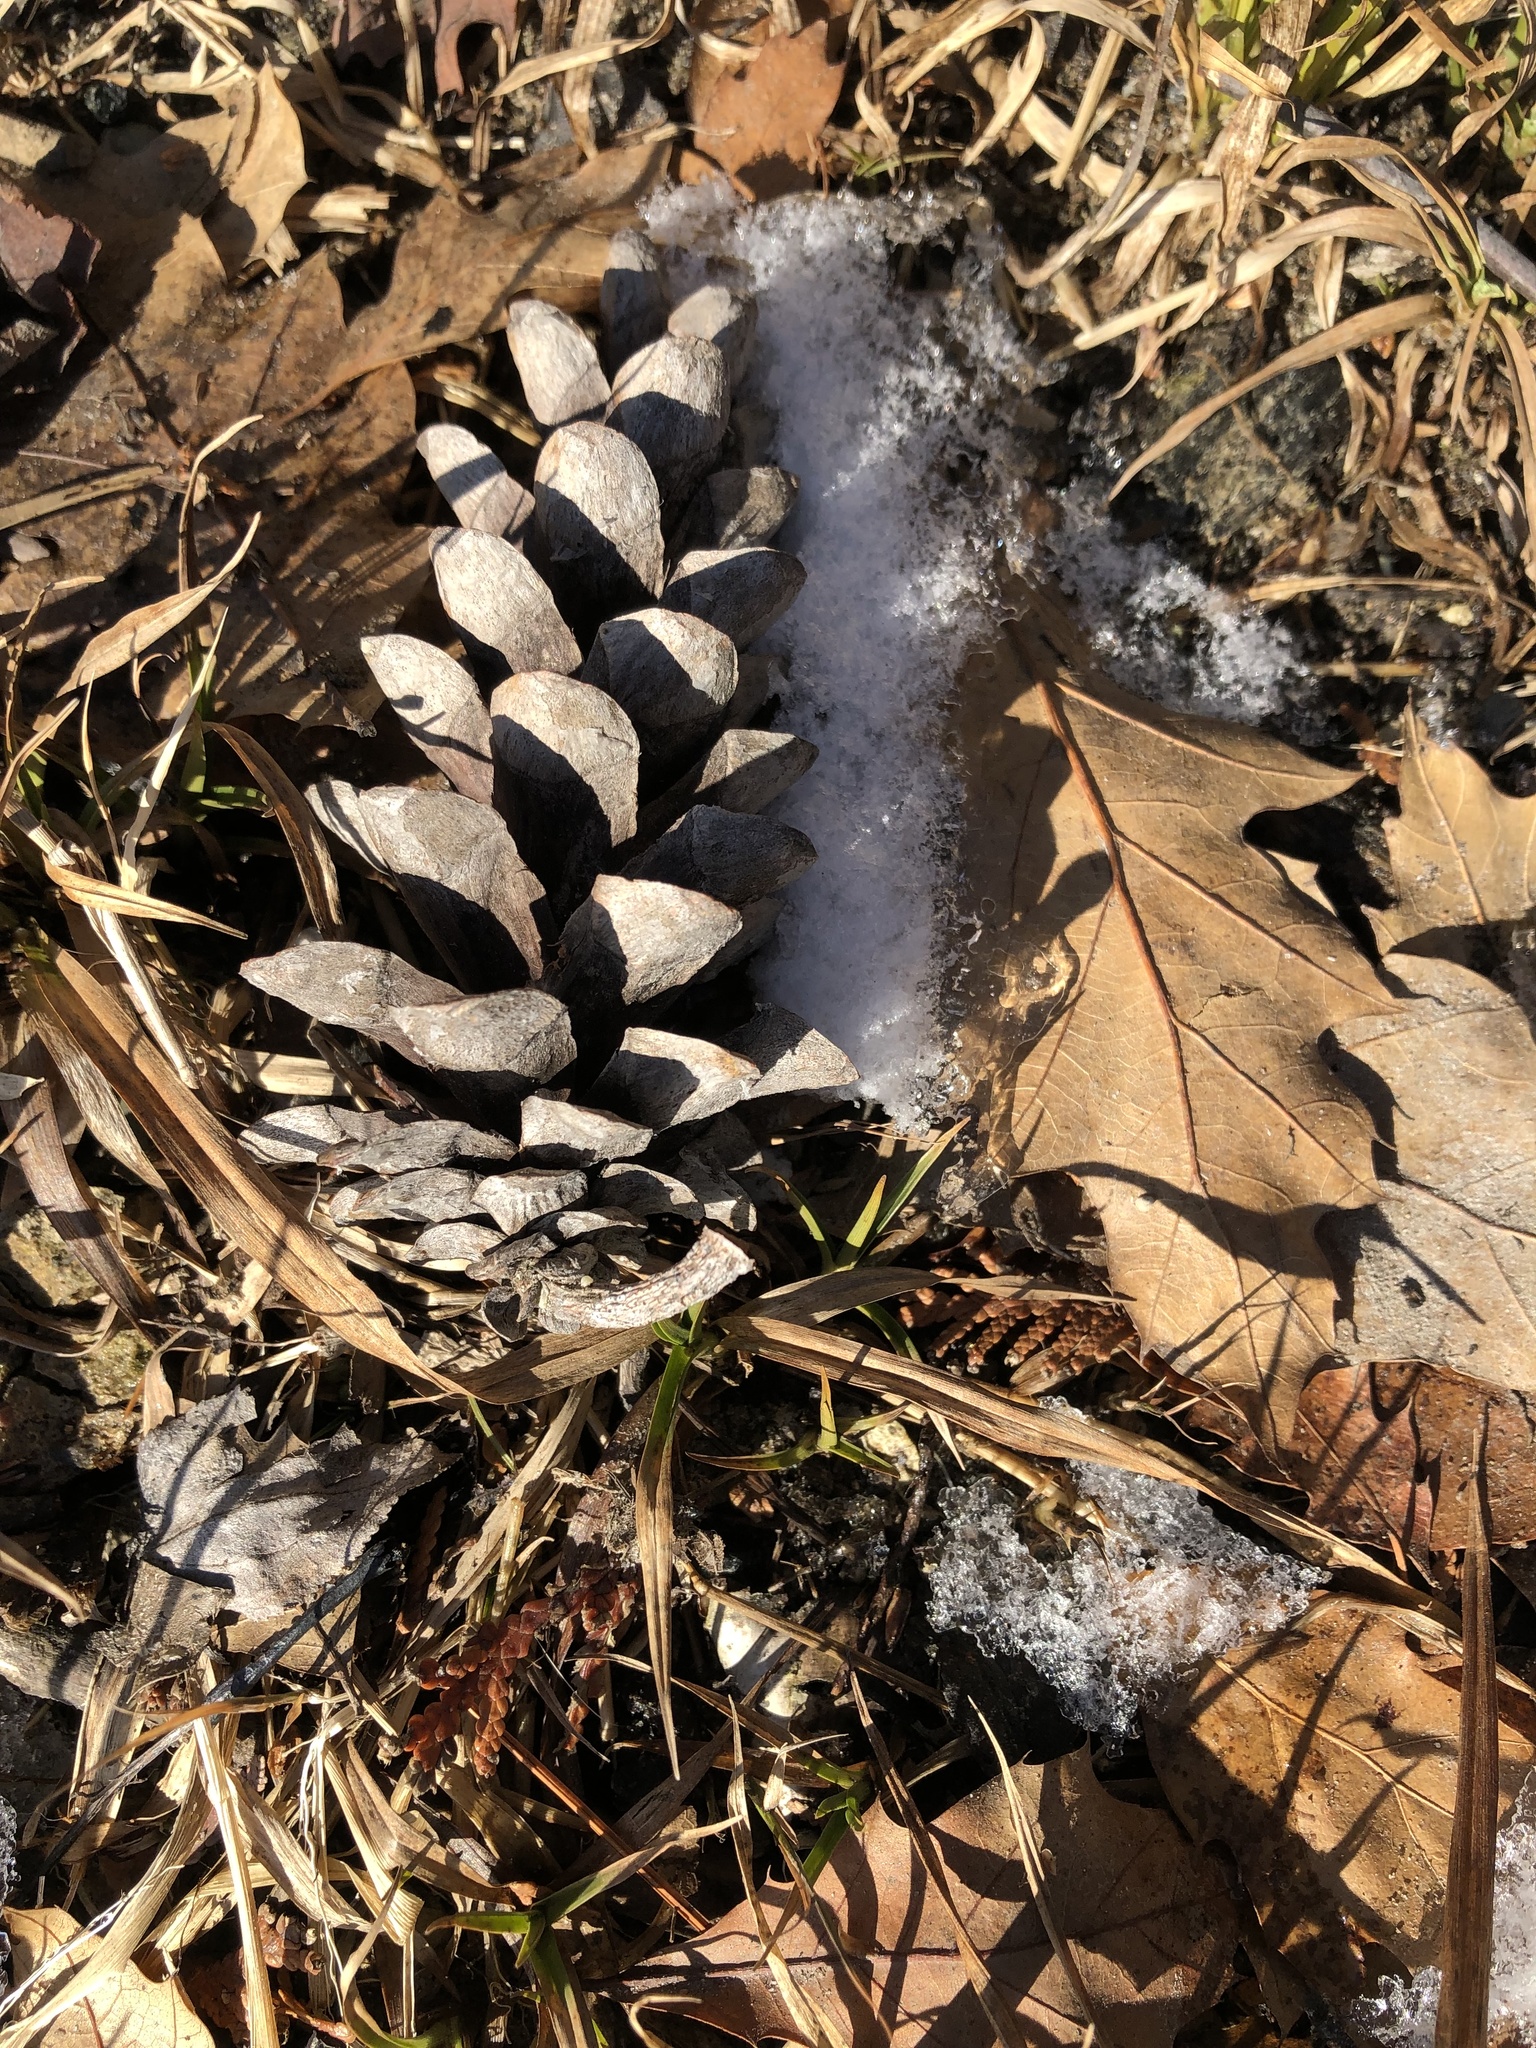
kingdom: Plantae
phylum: Tracheophyta
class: Pinopsida
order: Pinales
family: Pinaceae
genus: Pinus
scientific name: Pinus strobus
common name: Weymouth pine
